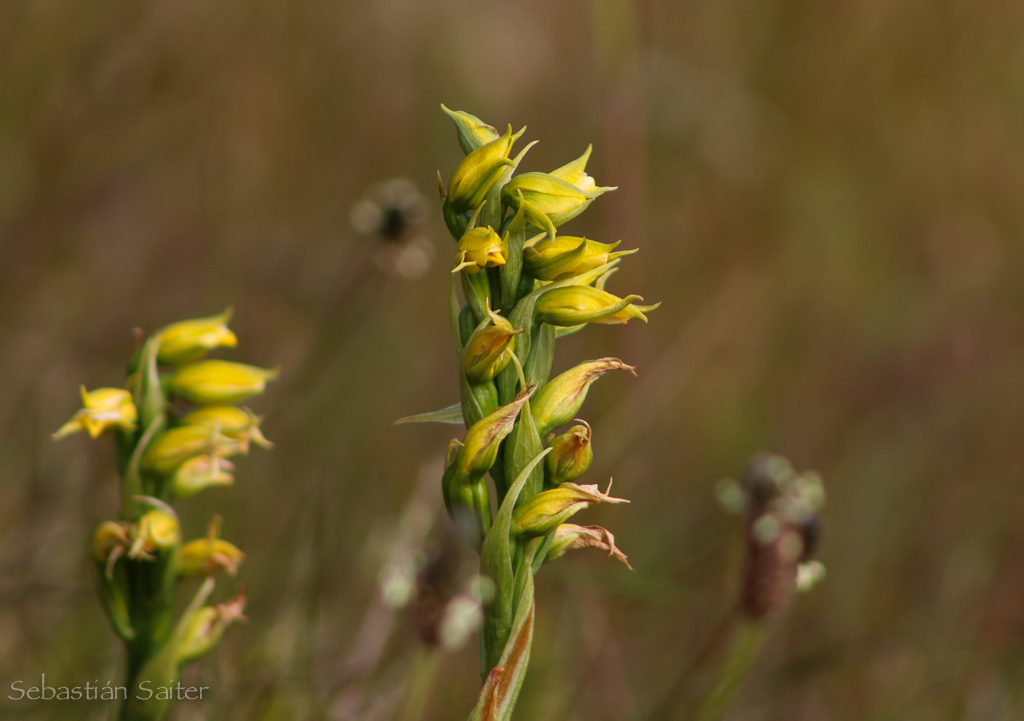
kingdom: Plantae
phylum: Tracheophyta
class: Liliopsida
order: Asparagales
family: Orchidaceae
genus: Gavilea
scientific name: Gavilea kingii
